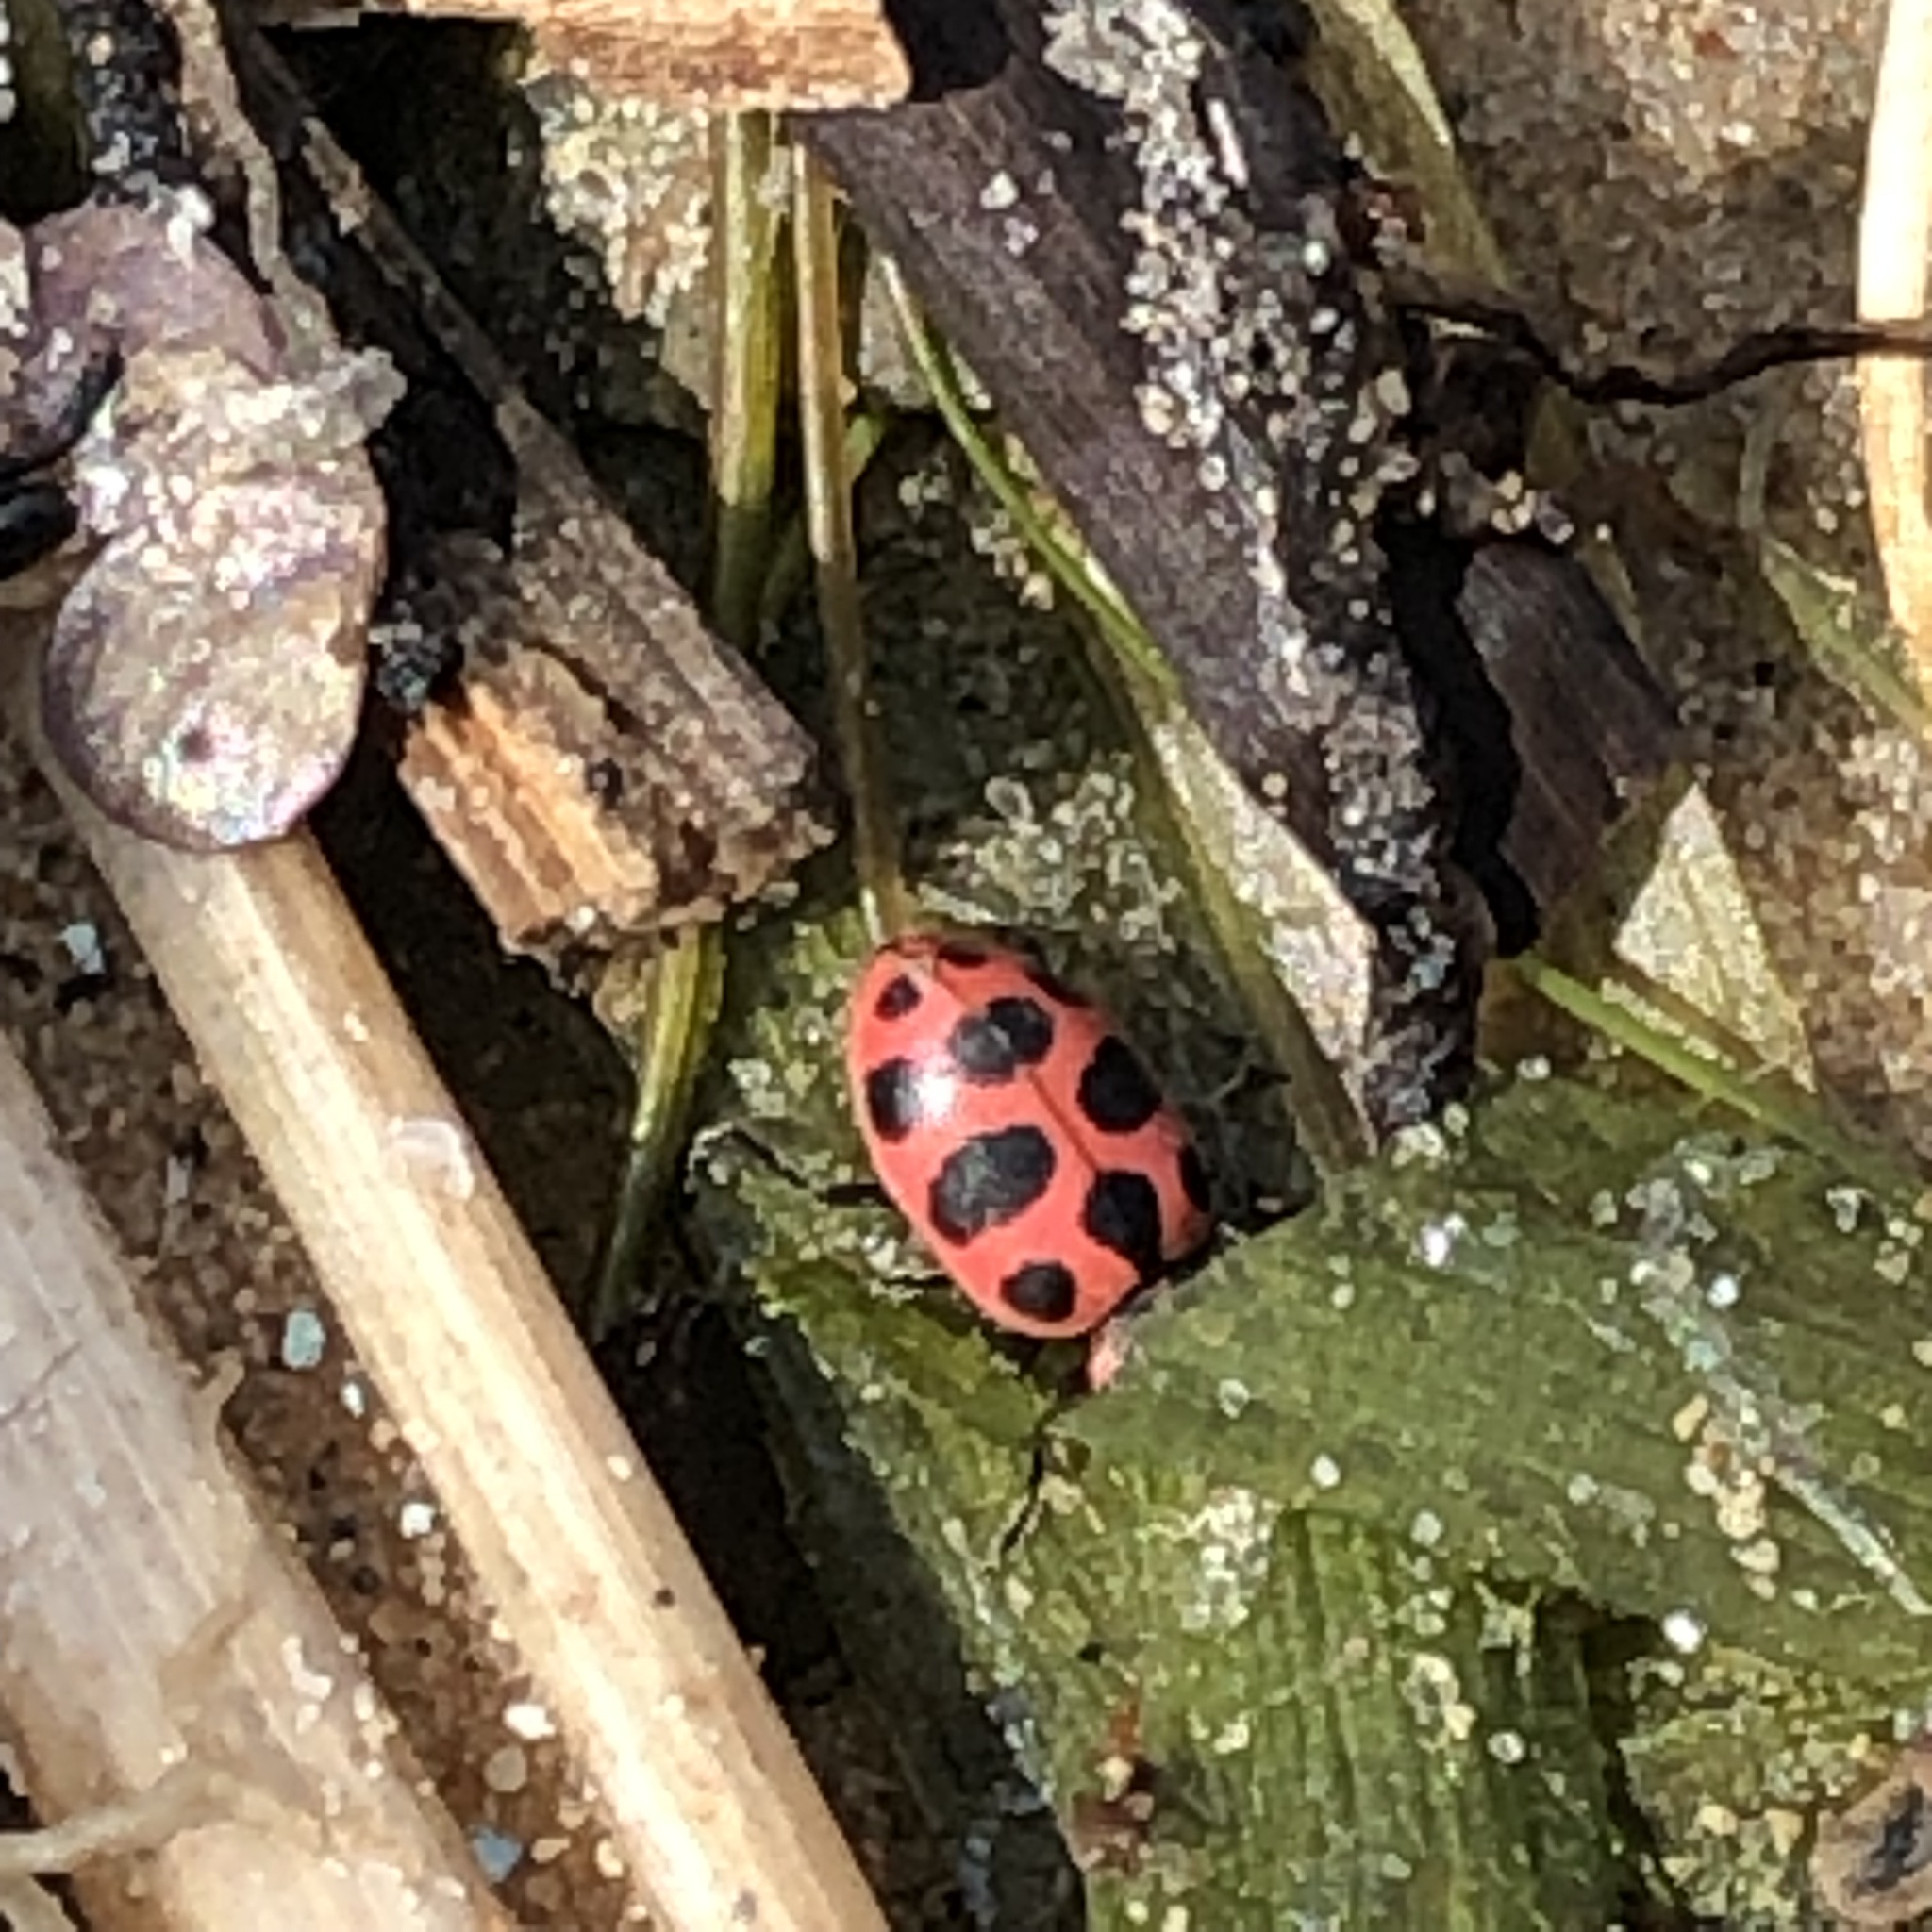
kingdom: Animalia
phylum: Arthropoda
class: Insecta
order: Coleoptera
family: Coccinellidae
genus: Coleomegilla
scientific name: Coleomegilla maculata
